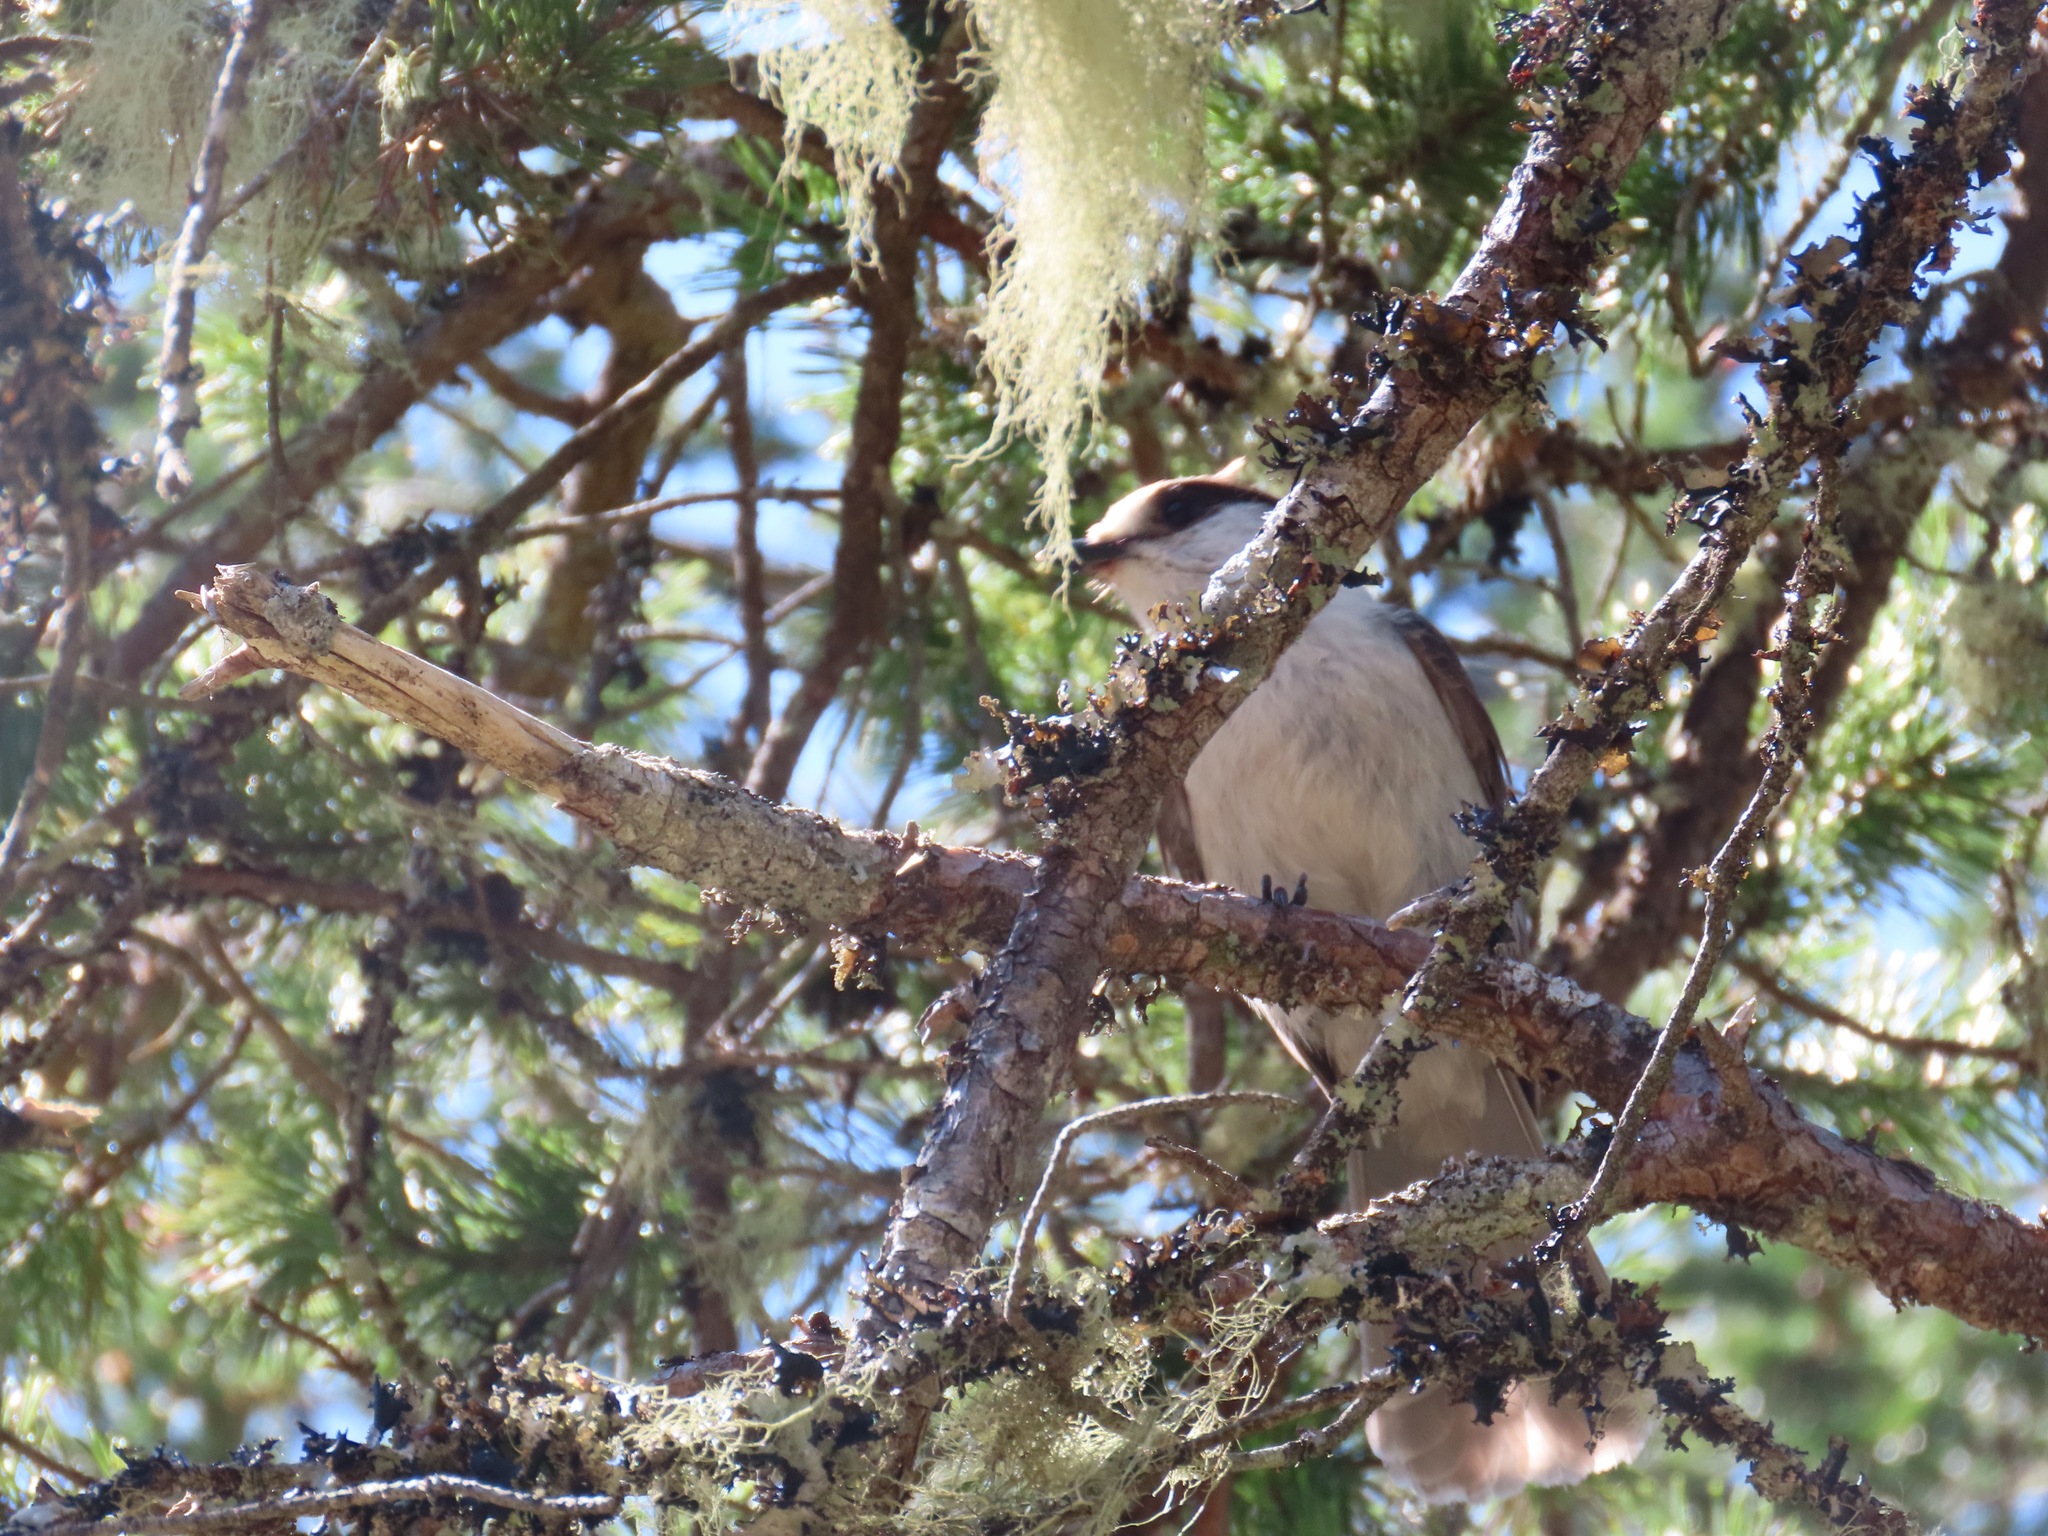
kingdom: Animalia
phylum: Chordata
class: Aves
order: Passeriformes
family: Corvidae
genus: Perisoreus
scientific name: Perisoreus canadensis
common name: Gray jay
